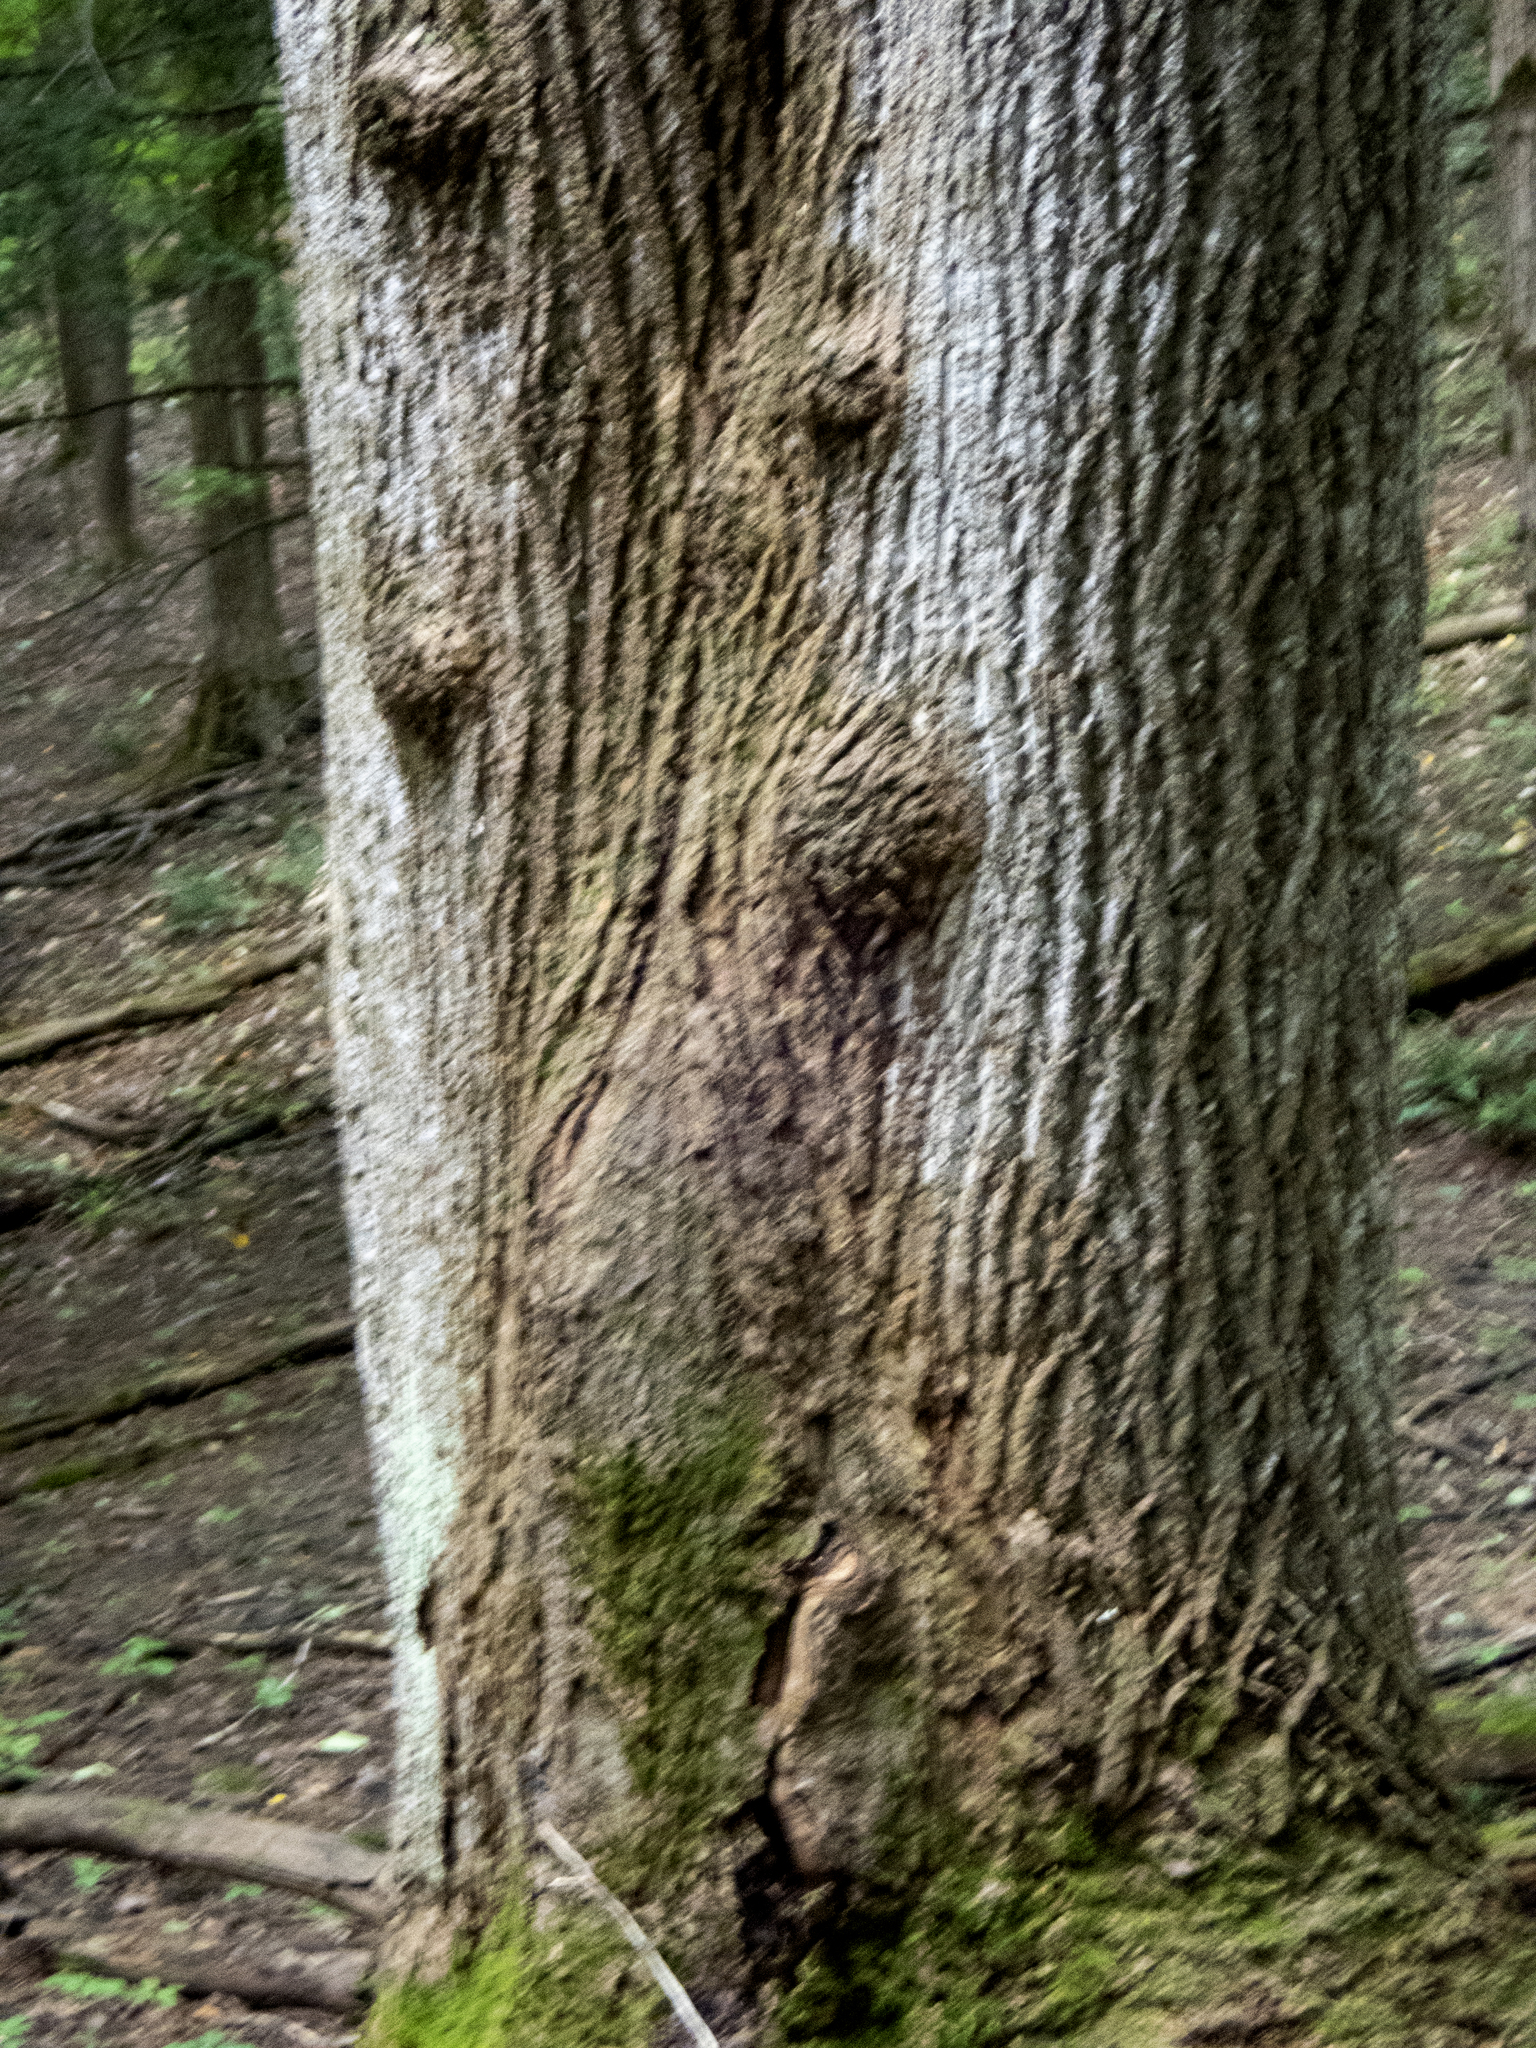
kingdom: Plantae
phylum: Tracheophyta
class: Magnoliopsida
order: Magnoliales
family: Magnoliaceae
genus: Liriodendron
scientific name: Liriodendron tulipifera
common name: Tulip tree
